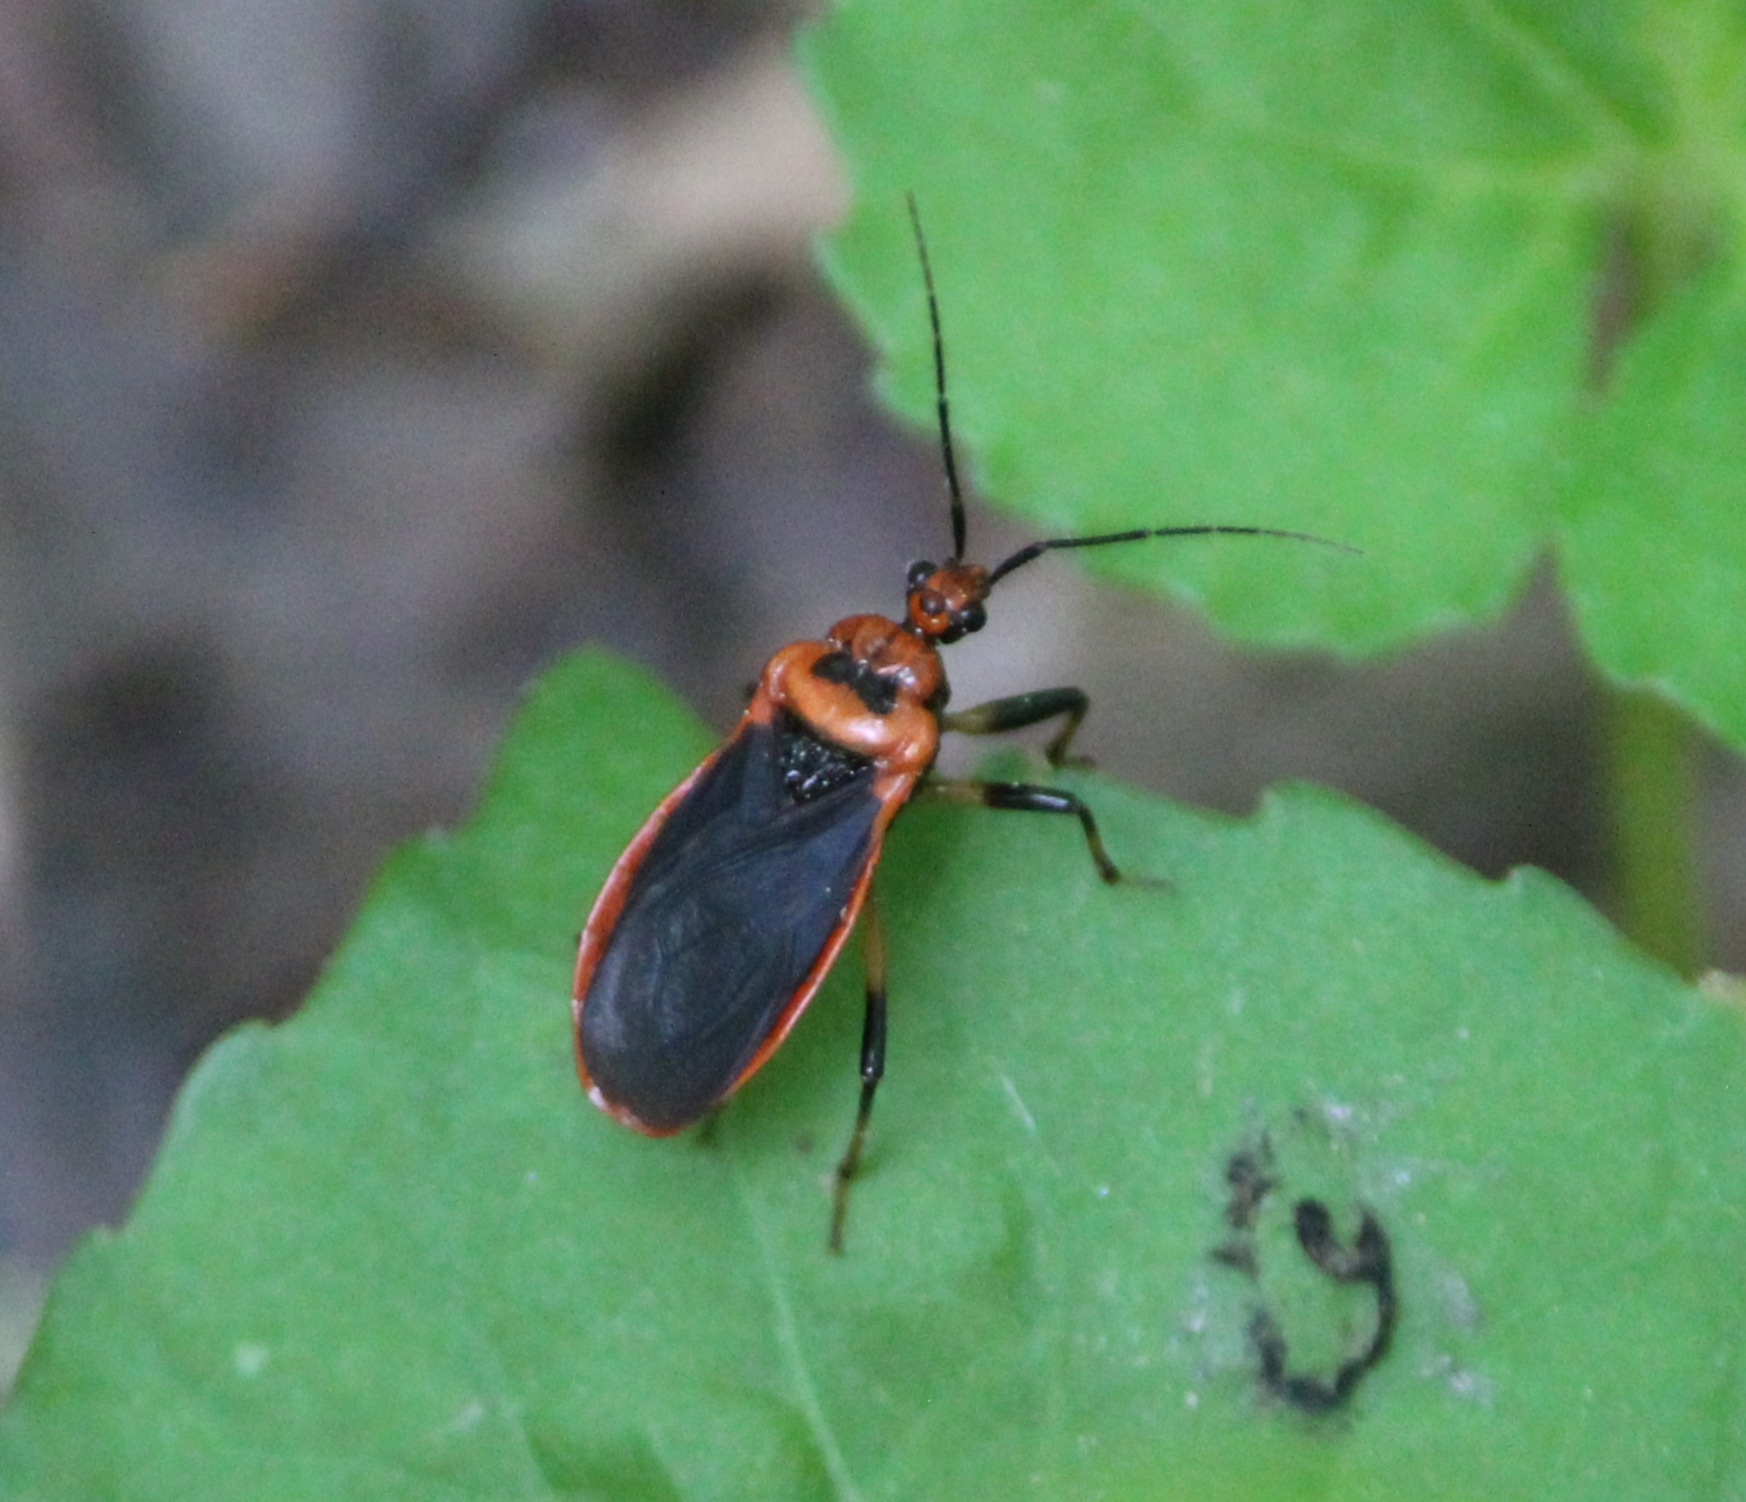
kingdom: Animalia
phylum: Arthropoda
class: Insecta
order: Hemiptera
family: Reduviidae
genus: Rhiginia
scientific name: Rhiginia cruciata
